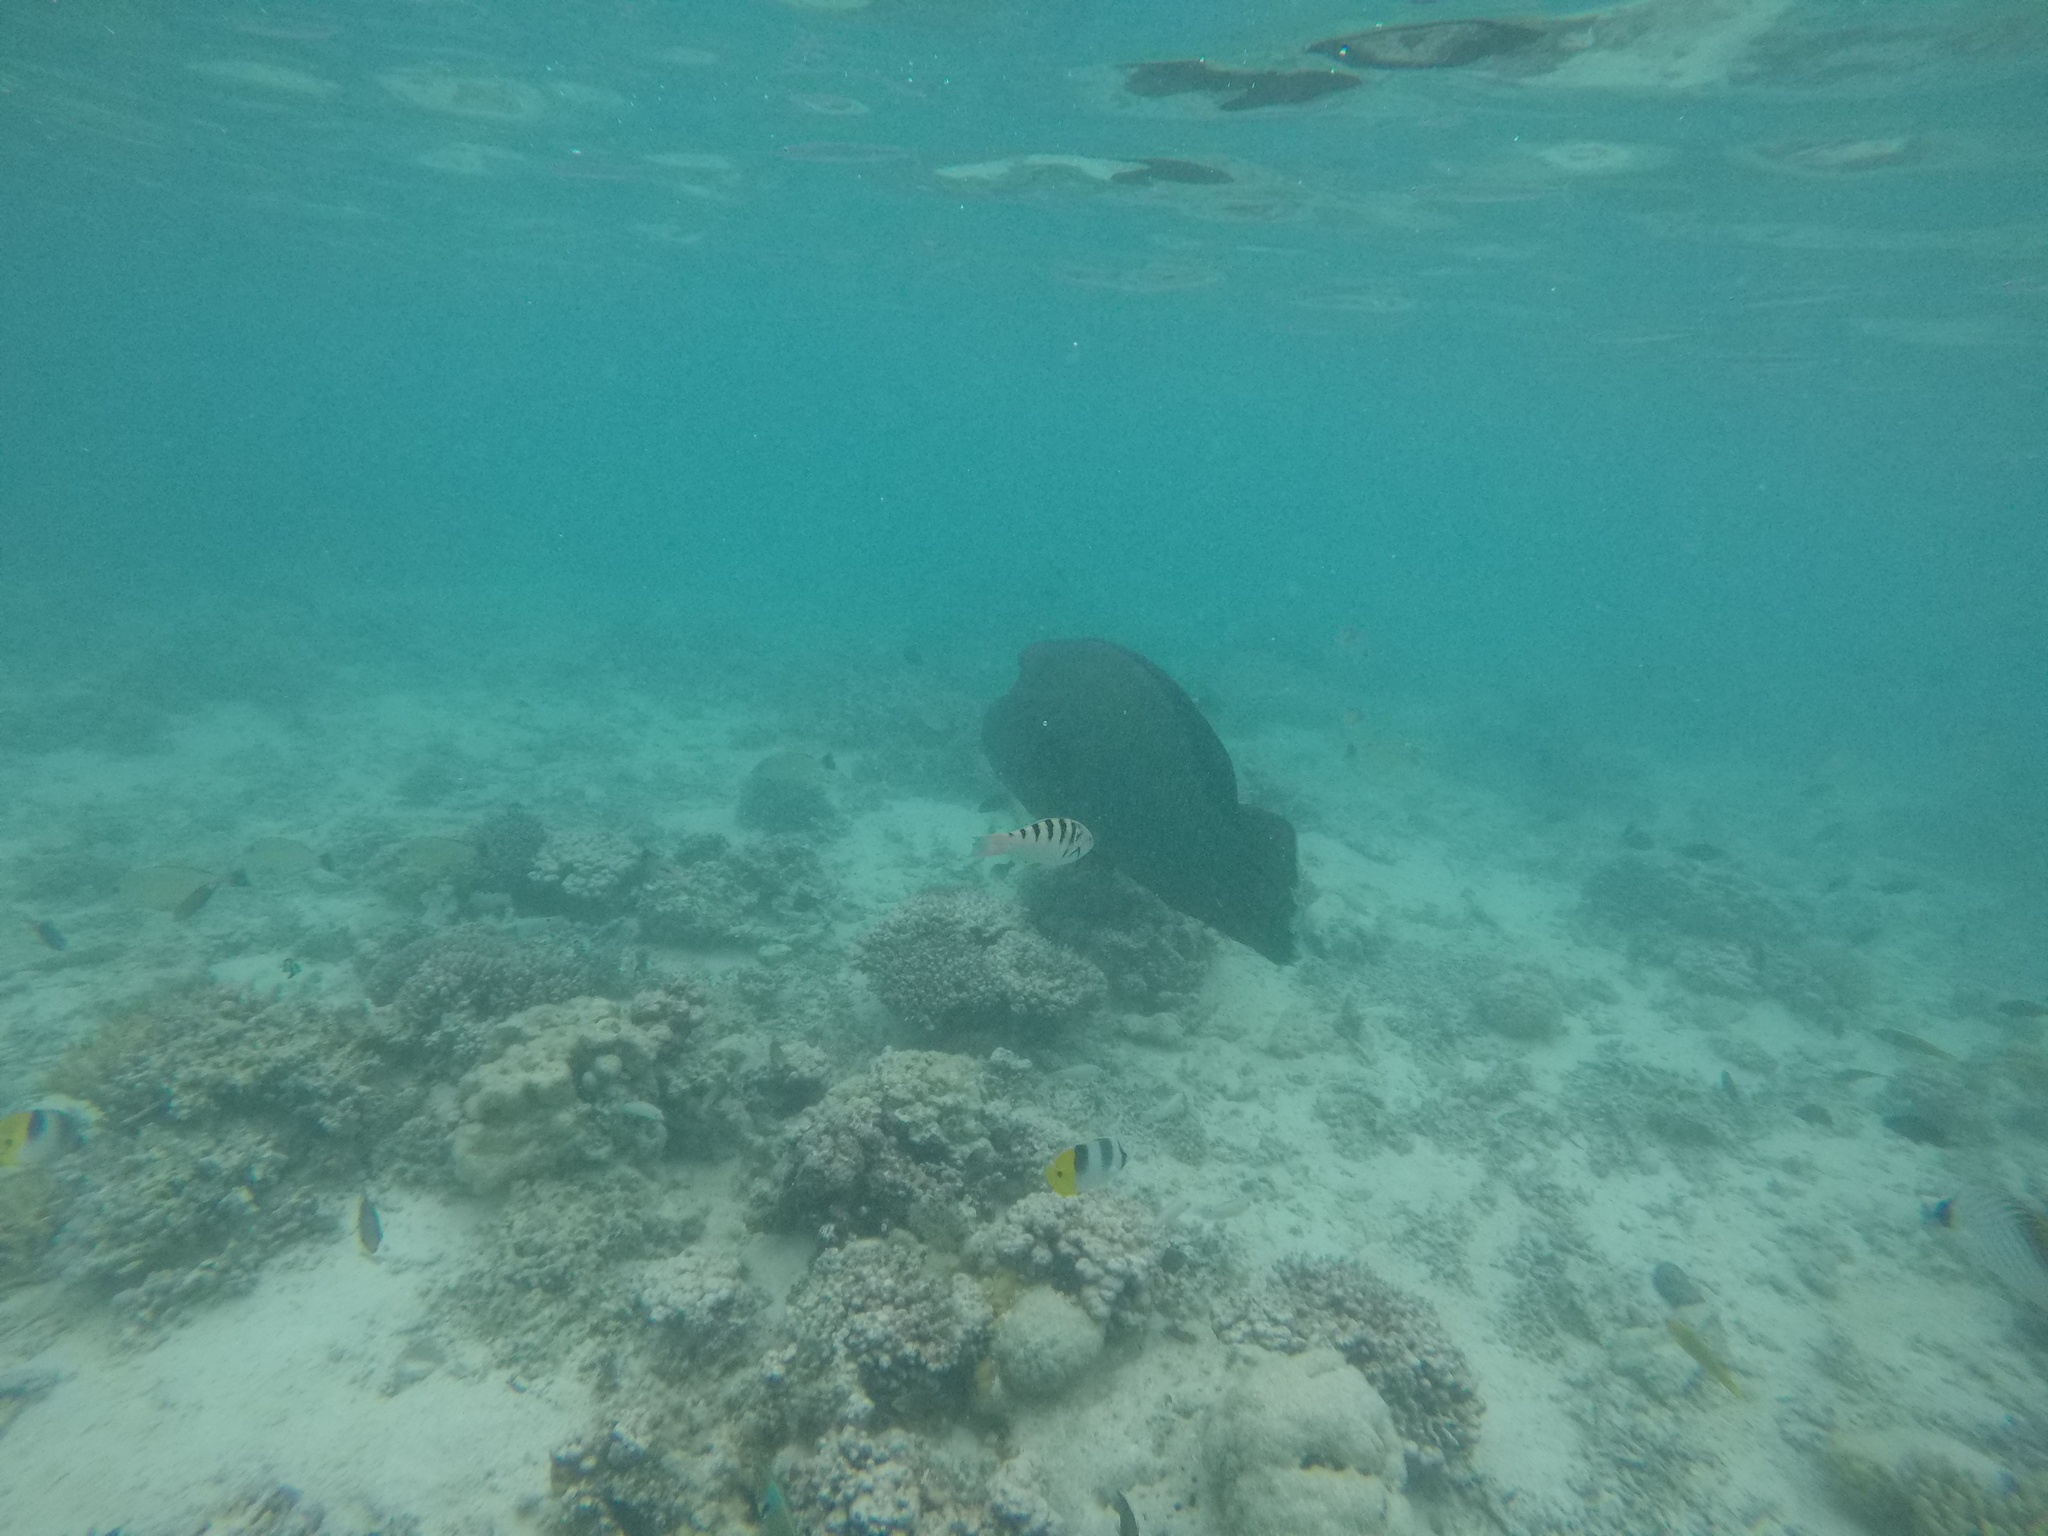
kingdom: Animalia
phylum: Chordata
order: Perciformes
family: Labridae
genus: Cheilinus
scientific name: Cheilinus undulatus
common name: Humphead wrasse
